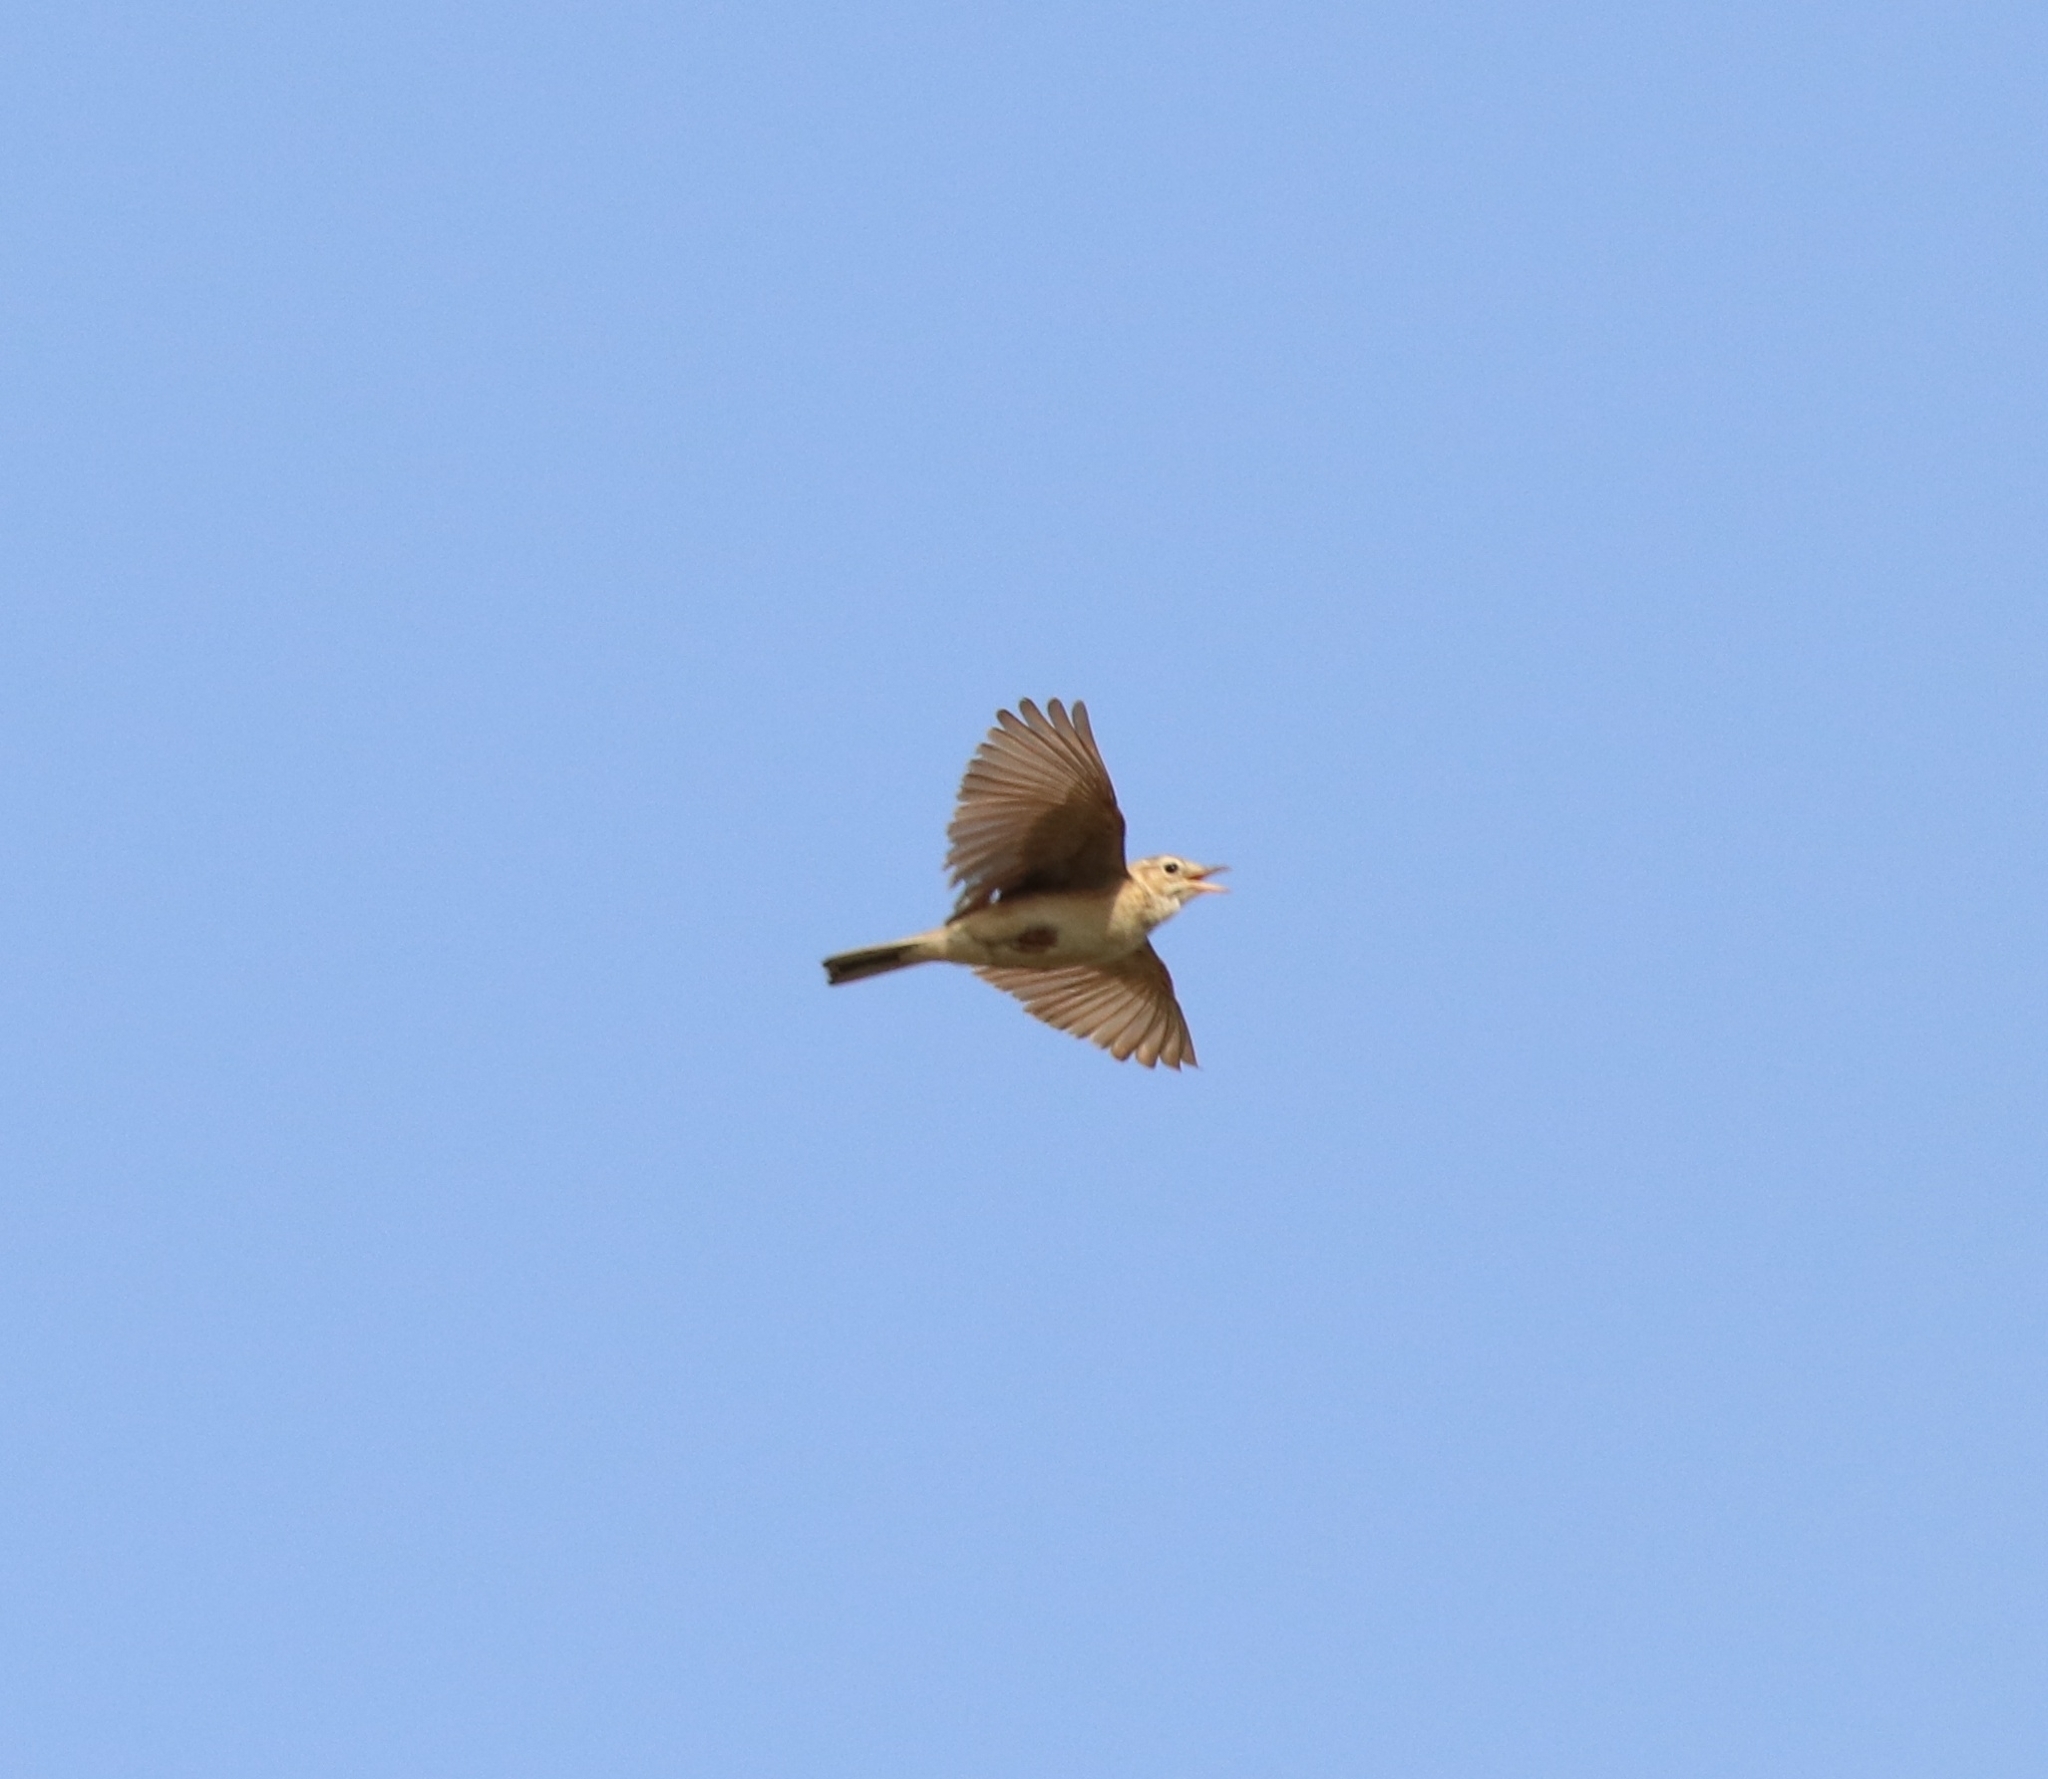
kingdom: Animalia
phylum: Chordata
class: Aves
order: Passeriformes
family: Motacillidae
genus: Anthus
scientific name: Anthus rufulus
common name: Paddyfield pipit
